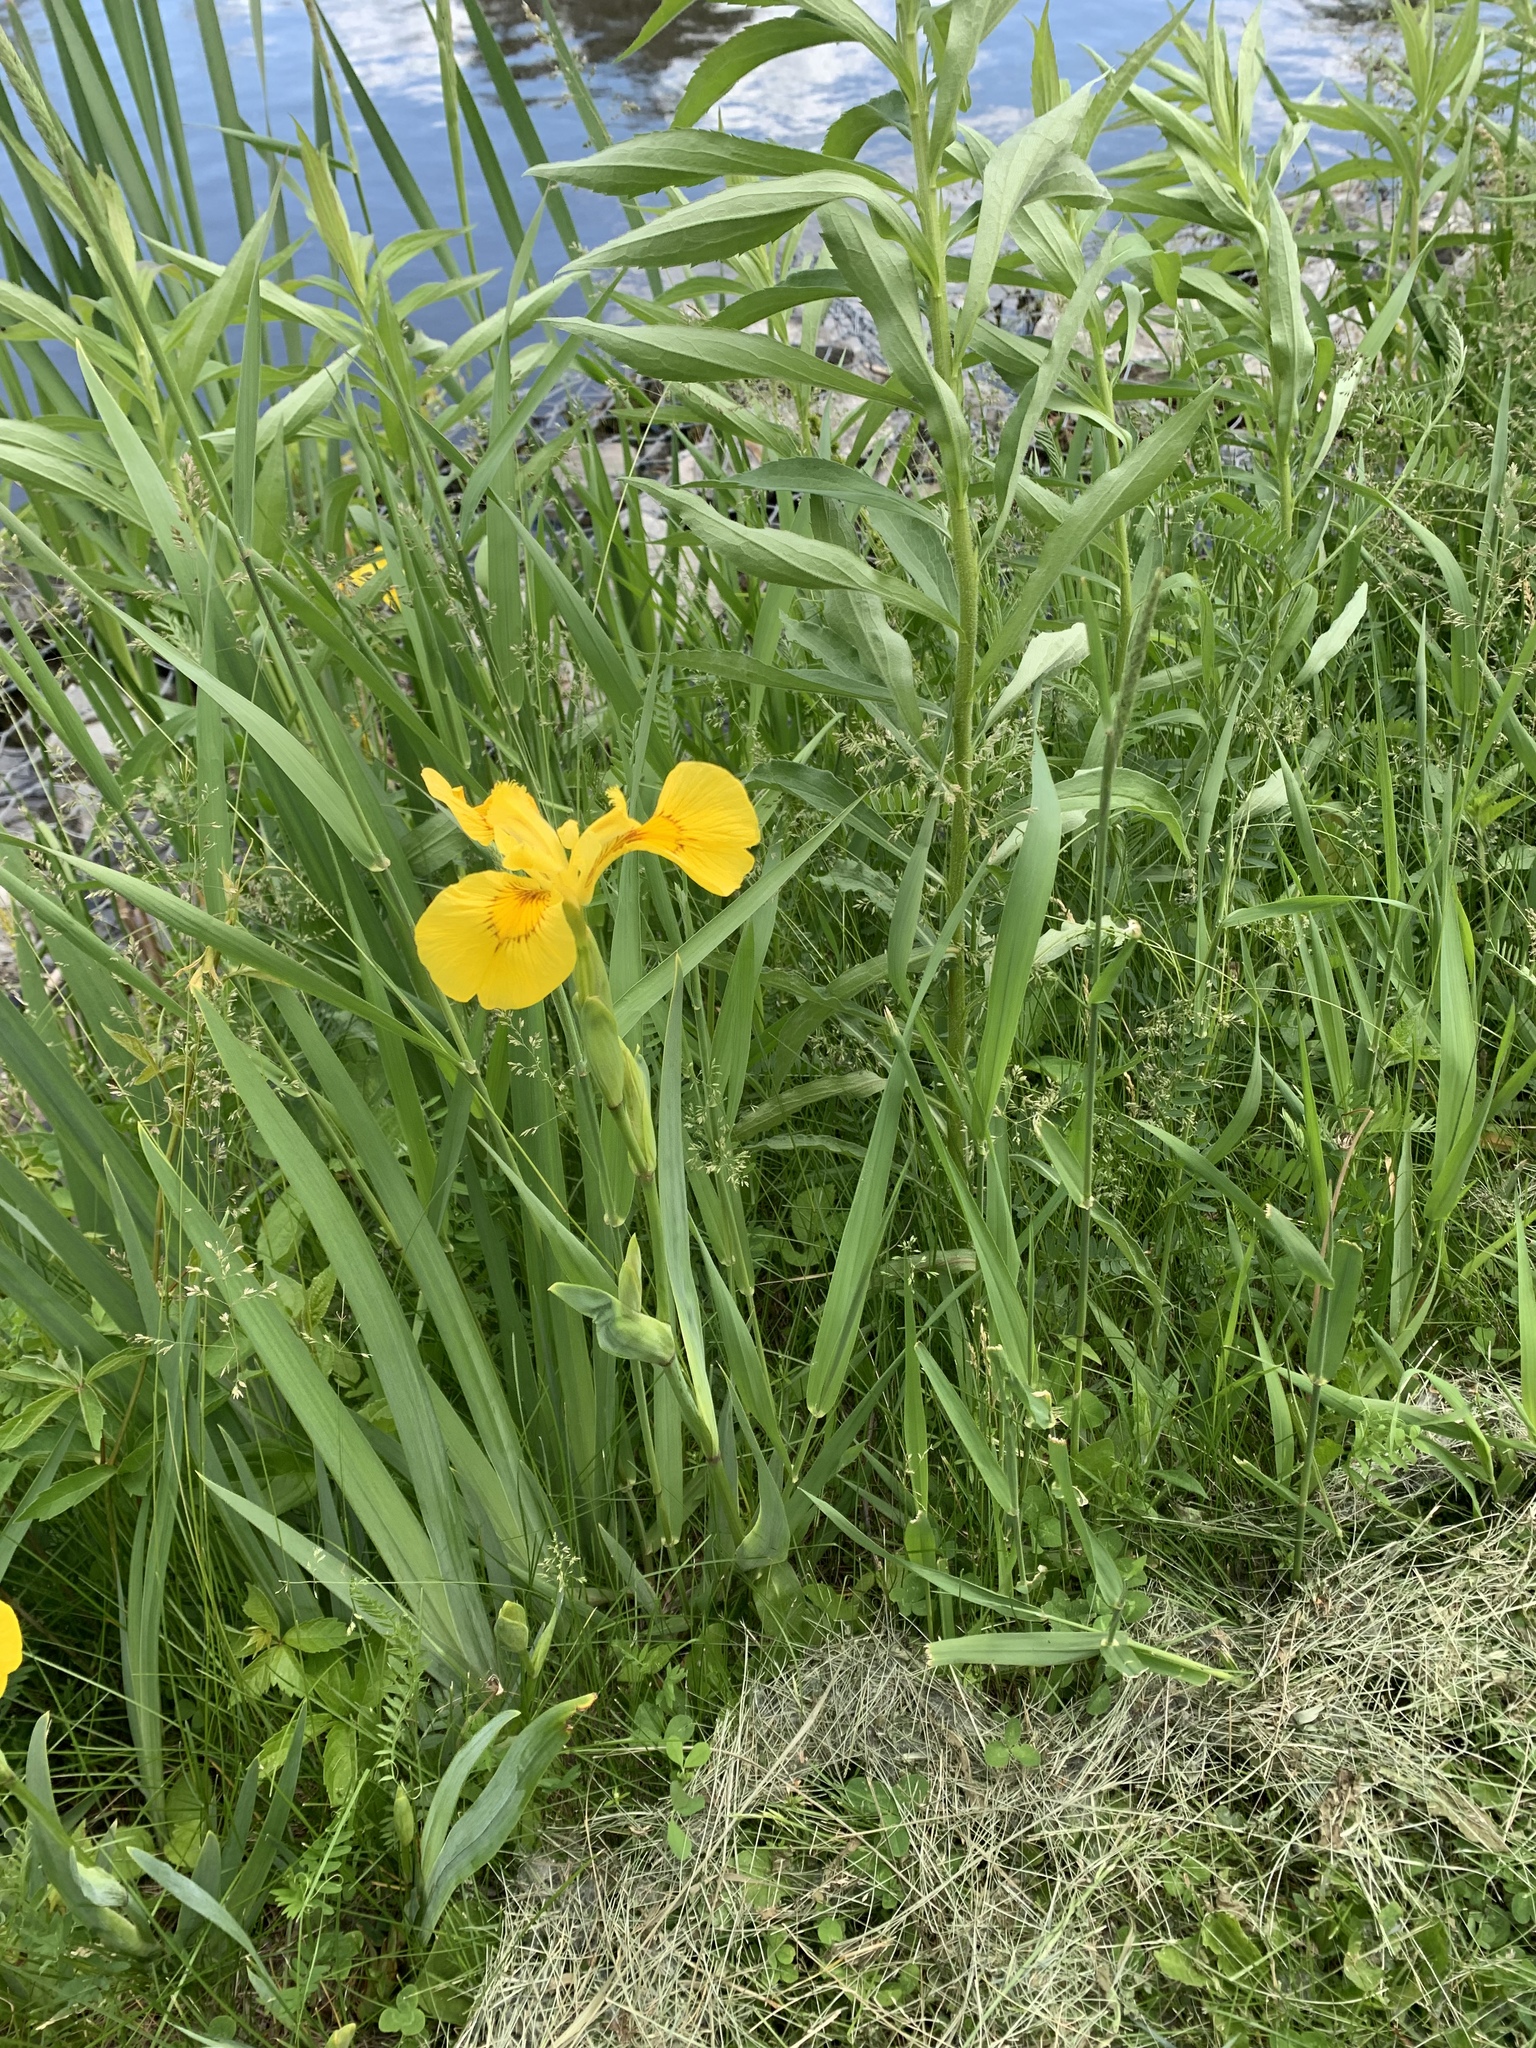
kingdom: Plantae
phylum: Tracheophyta
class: Liliopsida
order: Asparagales
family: Iridaceae
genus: Iris
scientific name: Iris pseudacorus
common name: Yellow flag
